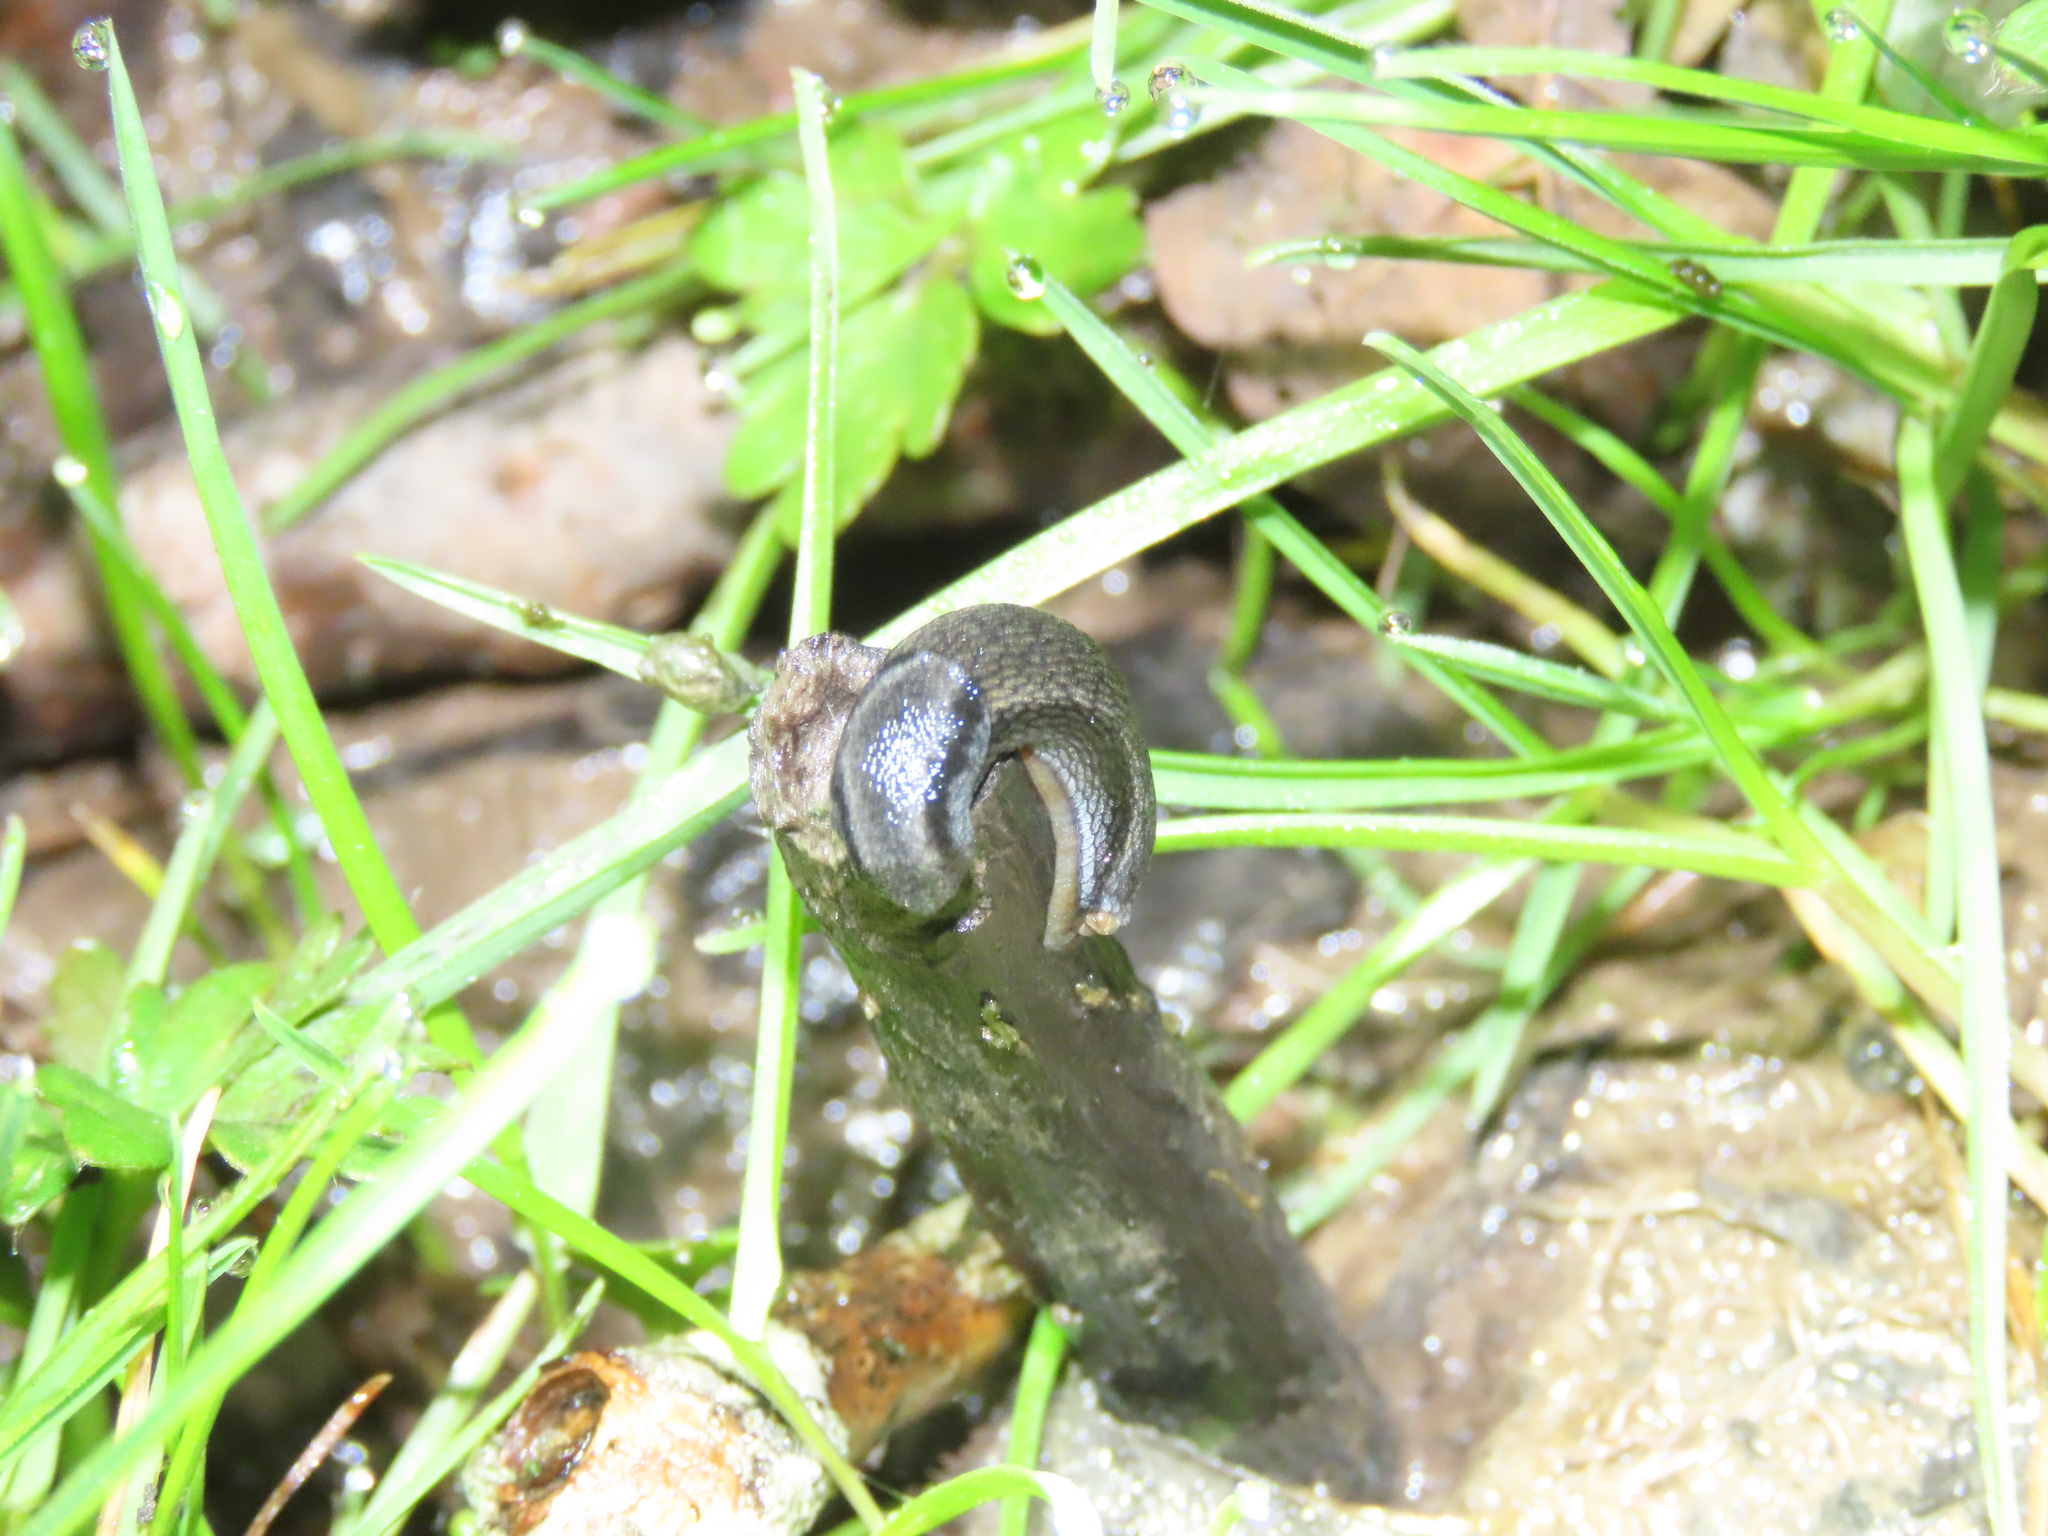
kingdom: Animalia
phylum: Mollusca
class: Gastropoda
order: Stylommatophora
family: Arionidae
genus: Arion
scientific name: Arion hortensis
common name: Garden arion
